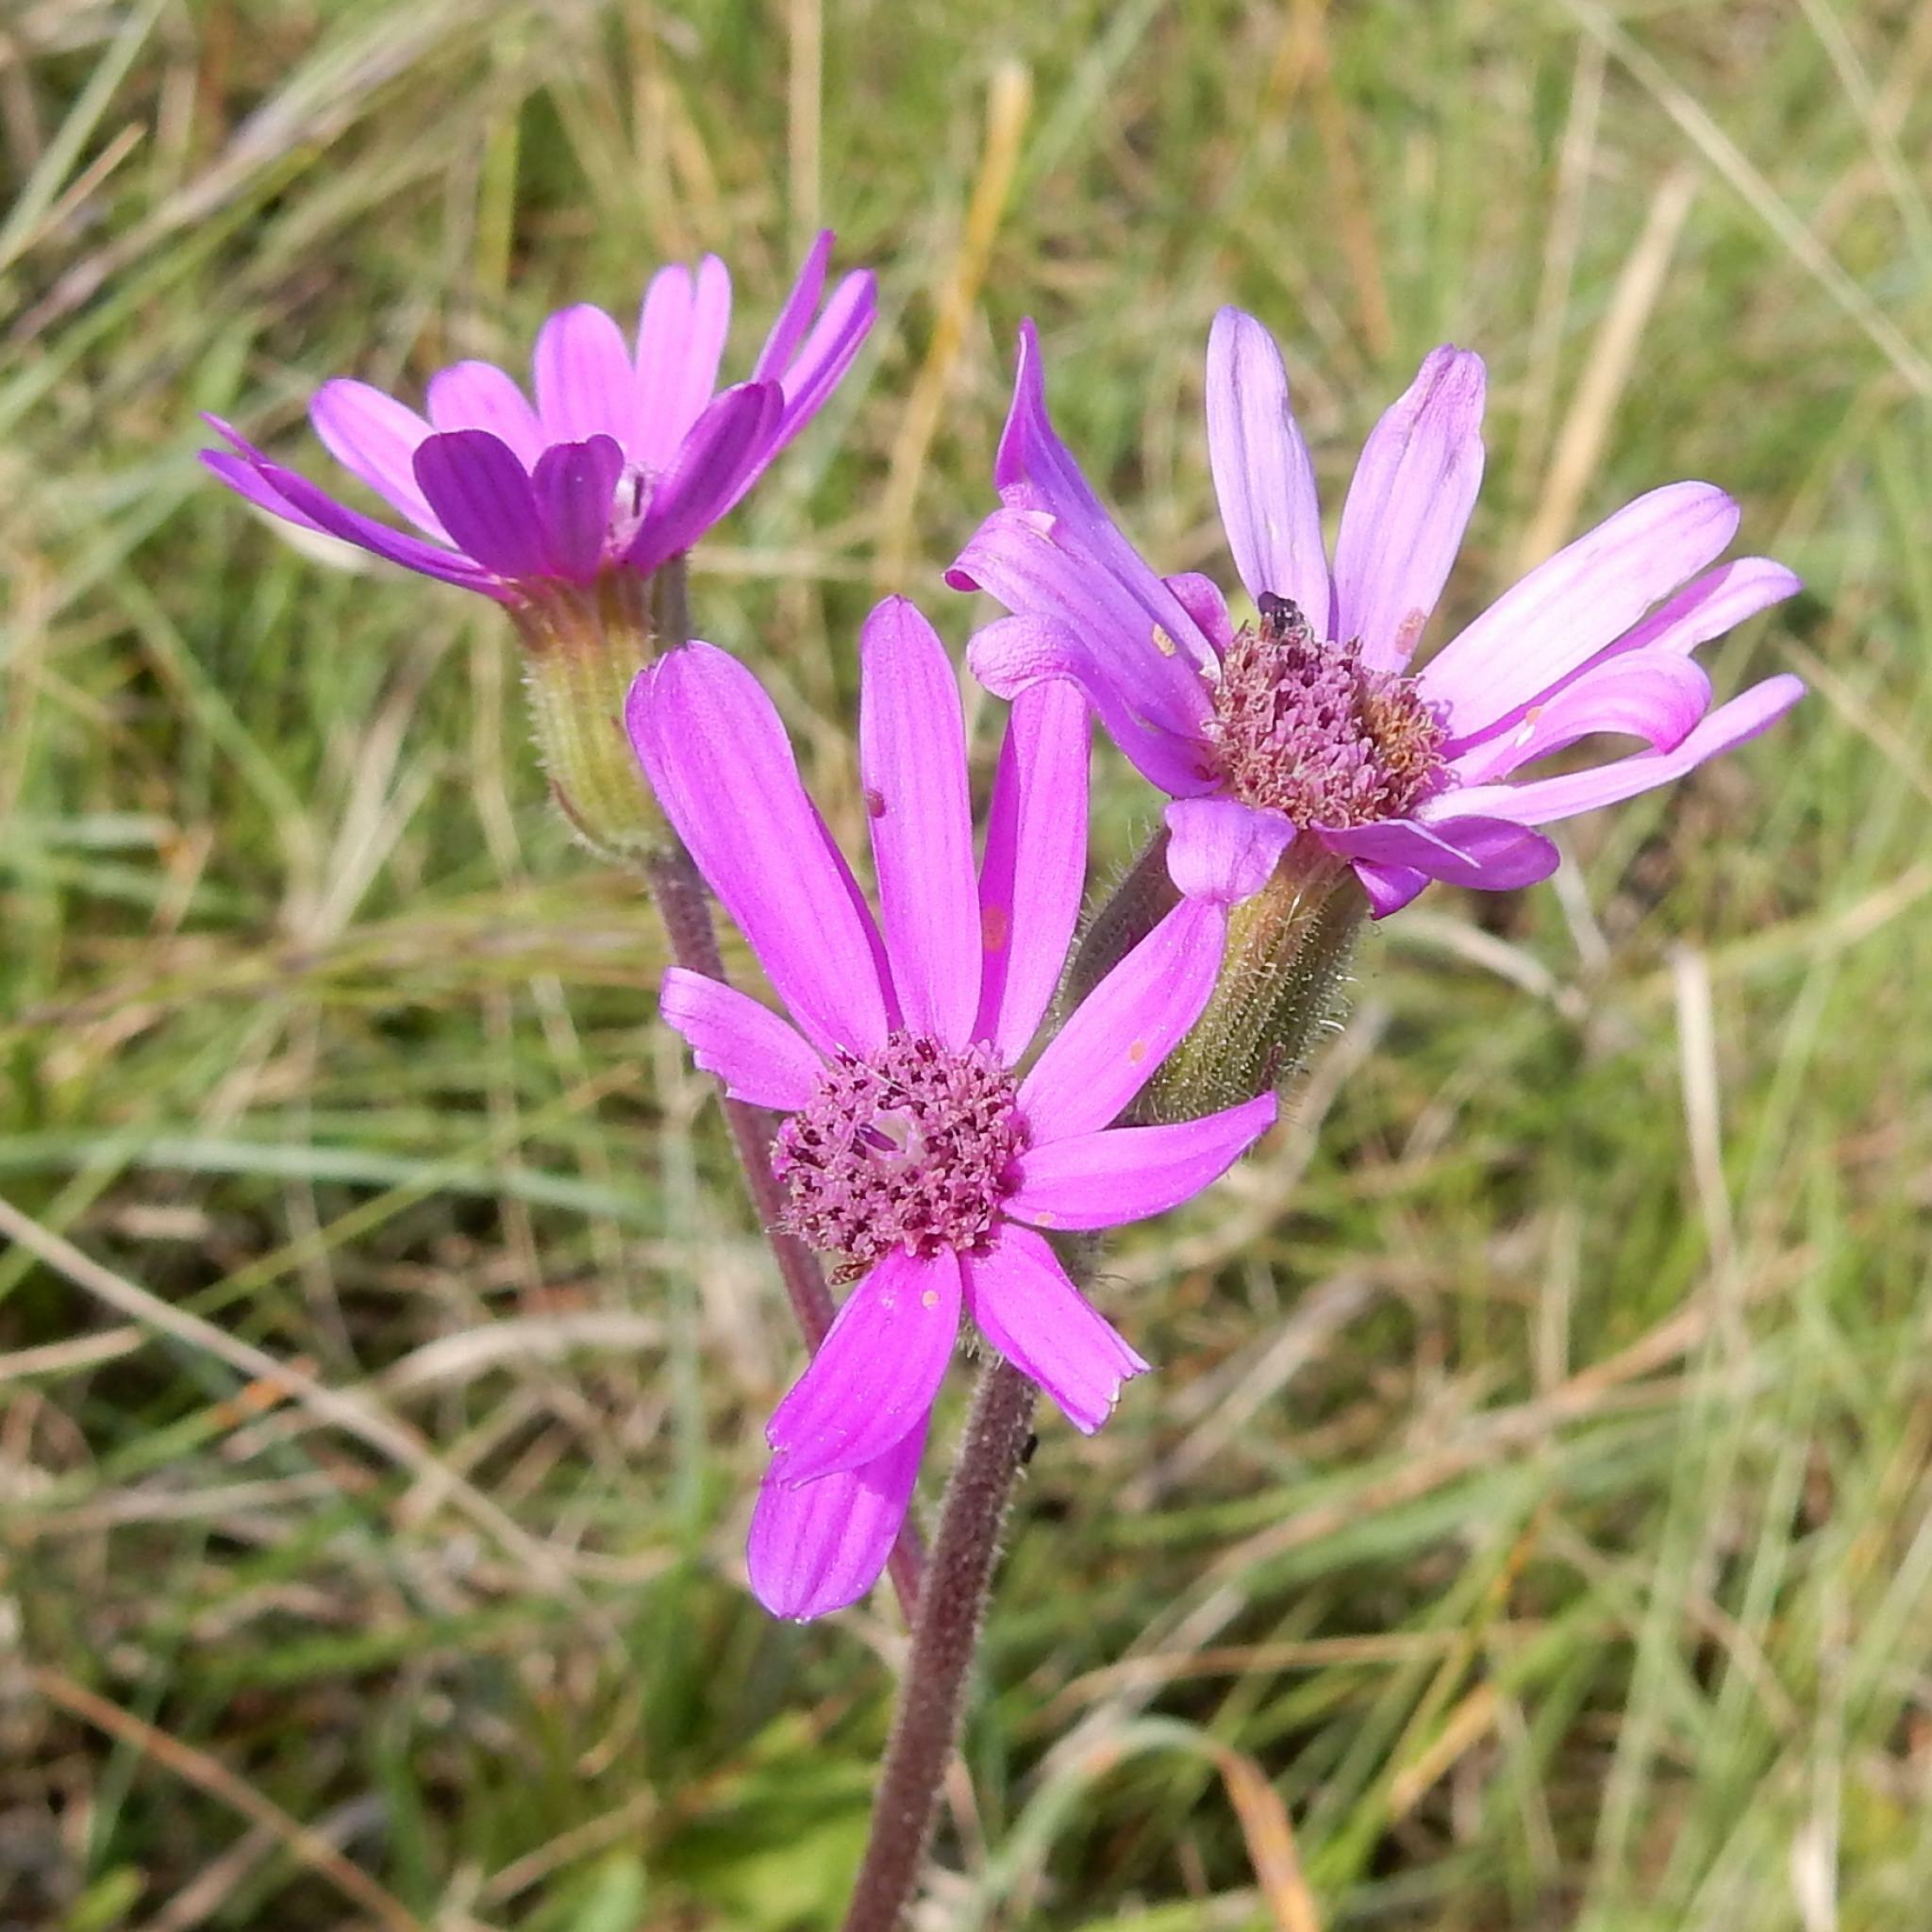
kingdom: Plantae
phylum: Tracheophyta
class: Magnoliopsida
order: Asterales
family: Asteraceae
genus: Senecio
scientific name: Senecio speciosus
